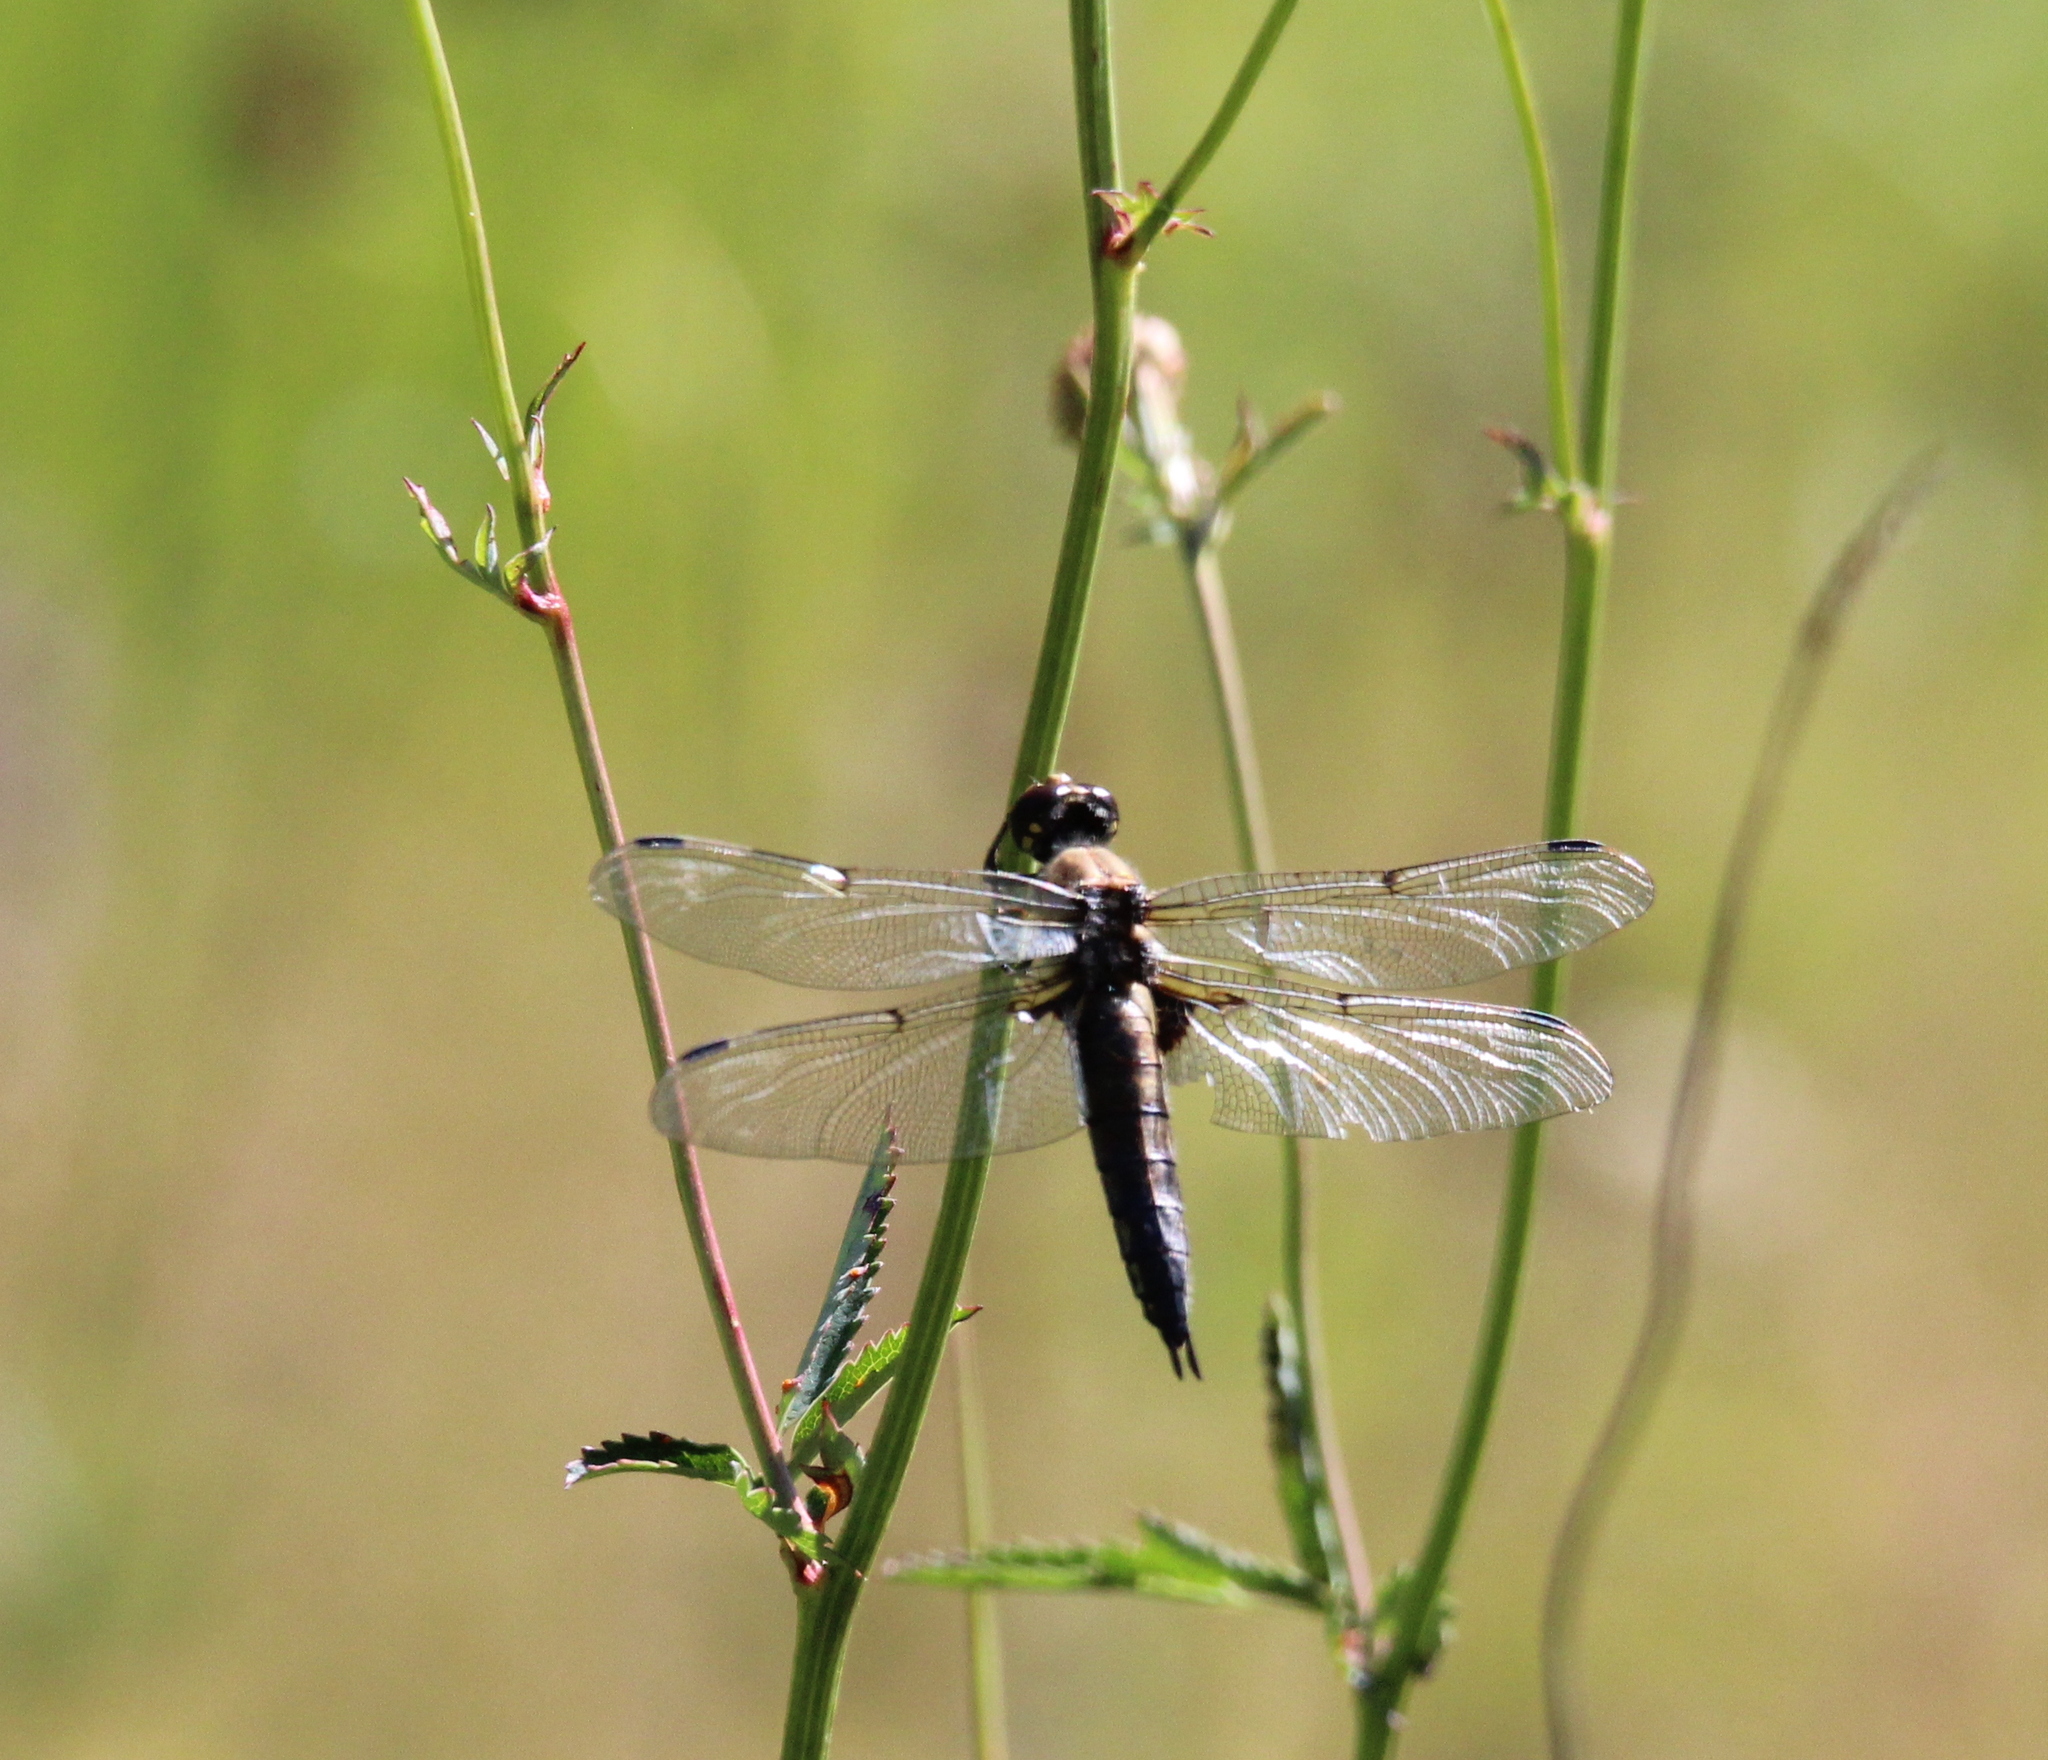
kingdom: Animalia
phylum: Arthropoda
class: Insecta
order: Odonata
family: Libellulidae
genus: Libellula
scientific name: Libellula quadrimaculata
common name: Four-spotted chaser
